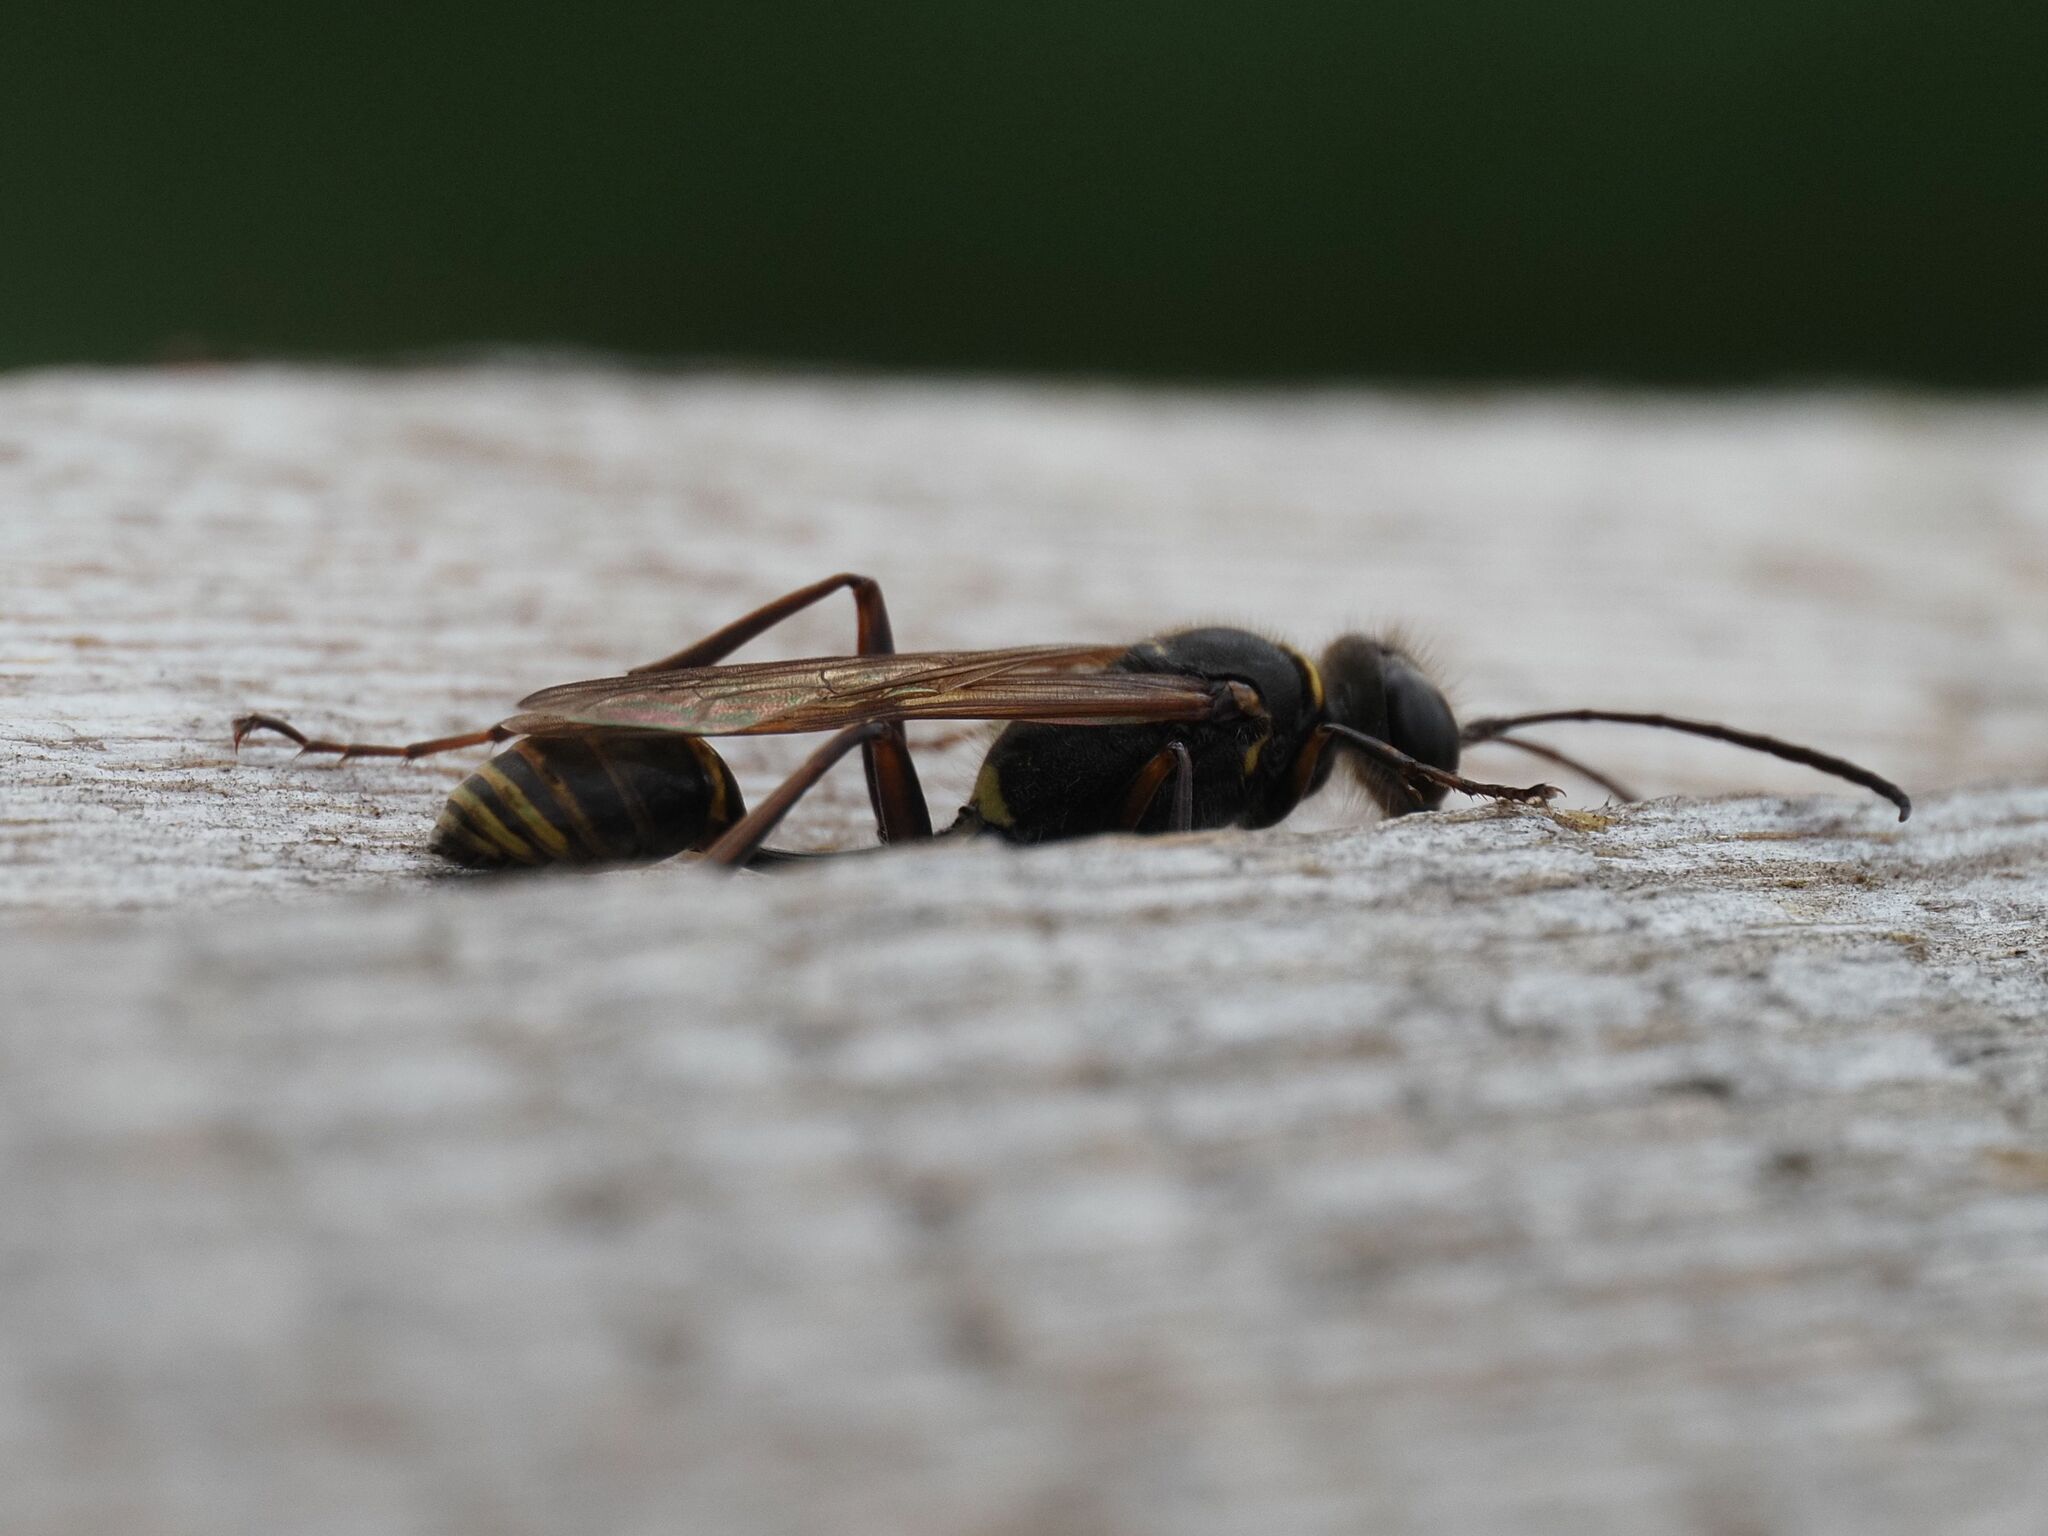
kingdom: Animalia
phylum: Arthropoda
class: Insecta
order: Hymenoptera
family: Sphecidae
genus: Sceliphron
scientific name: Sceliphron curvatum
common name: Pèlopèe
